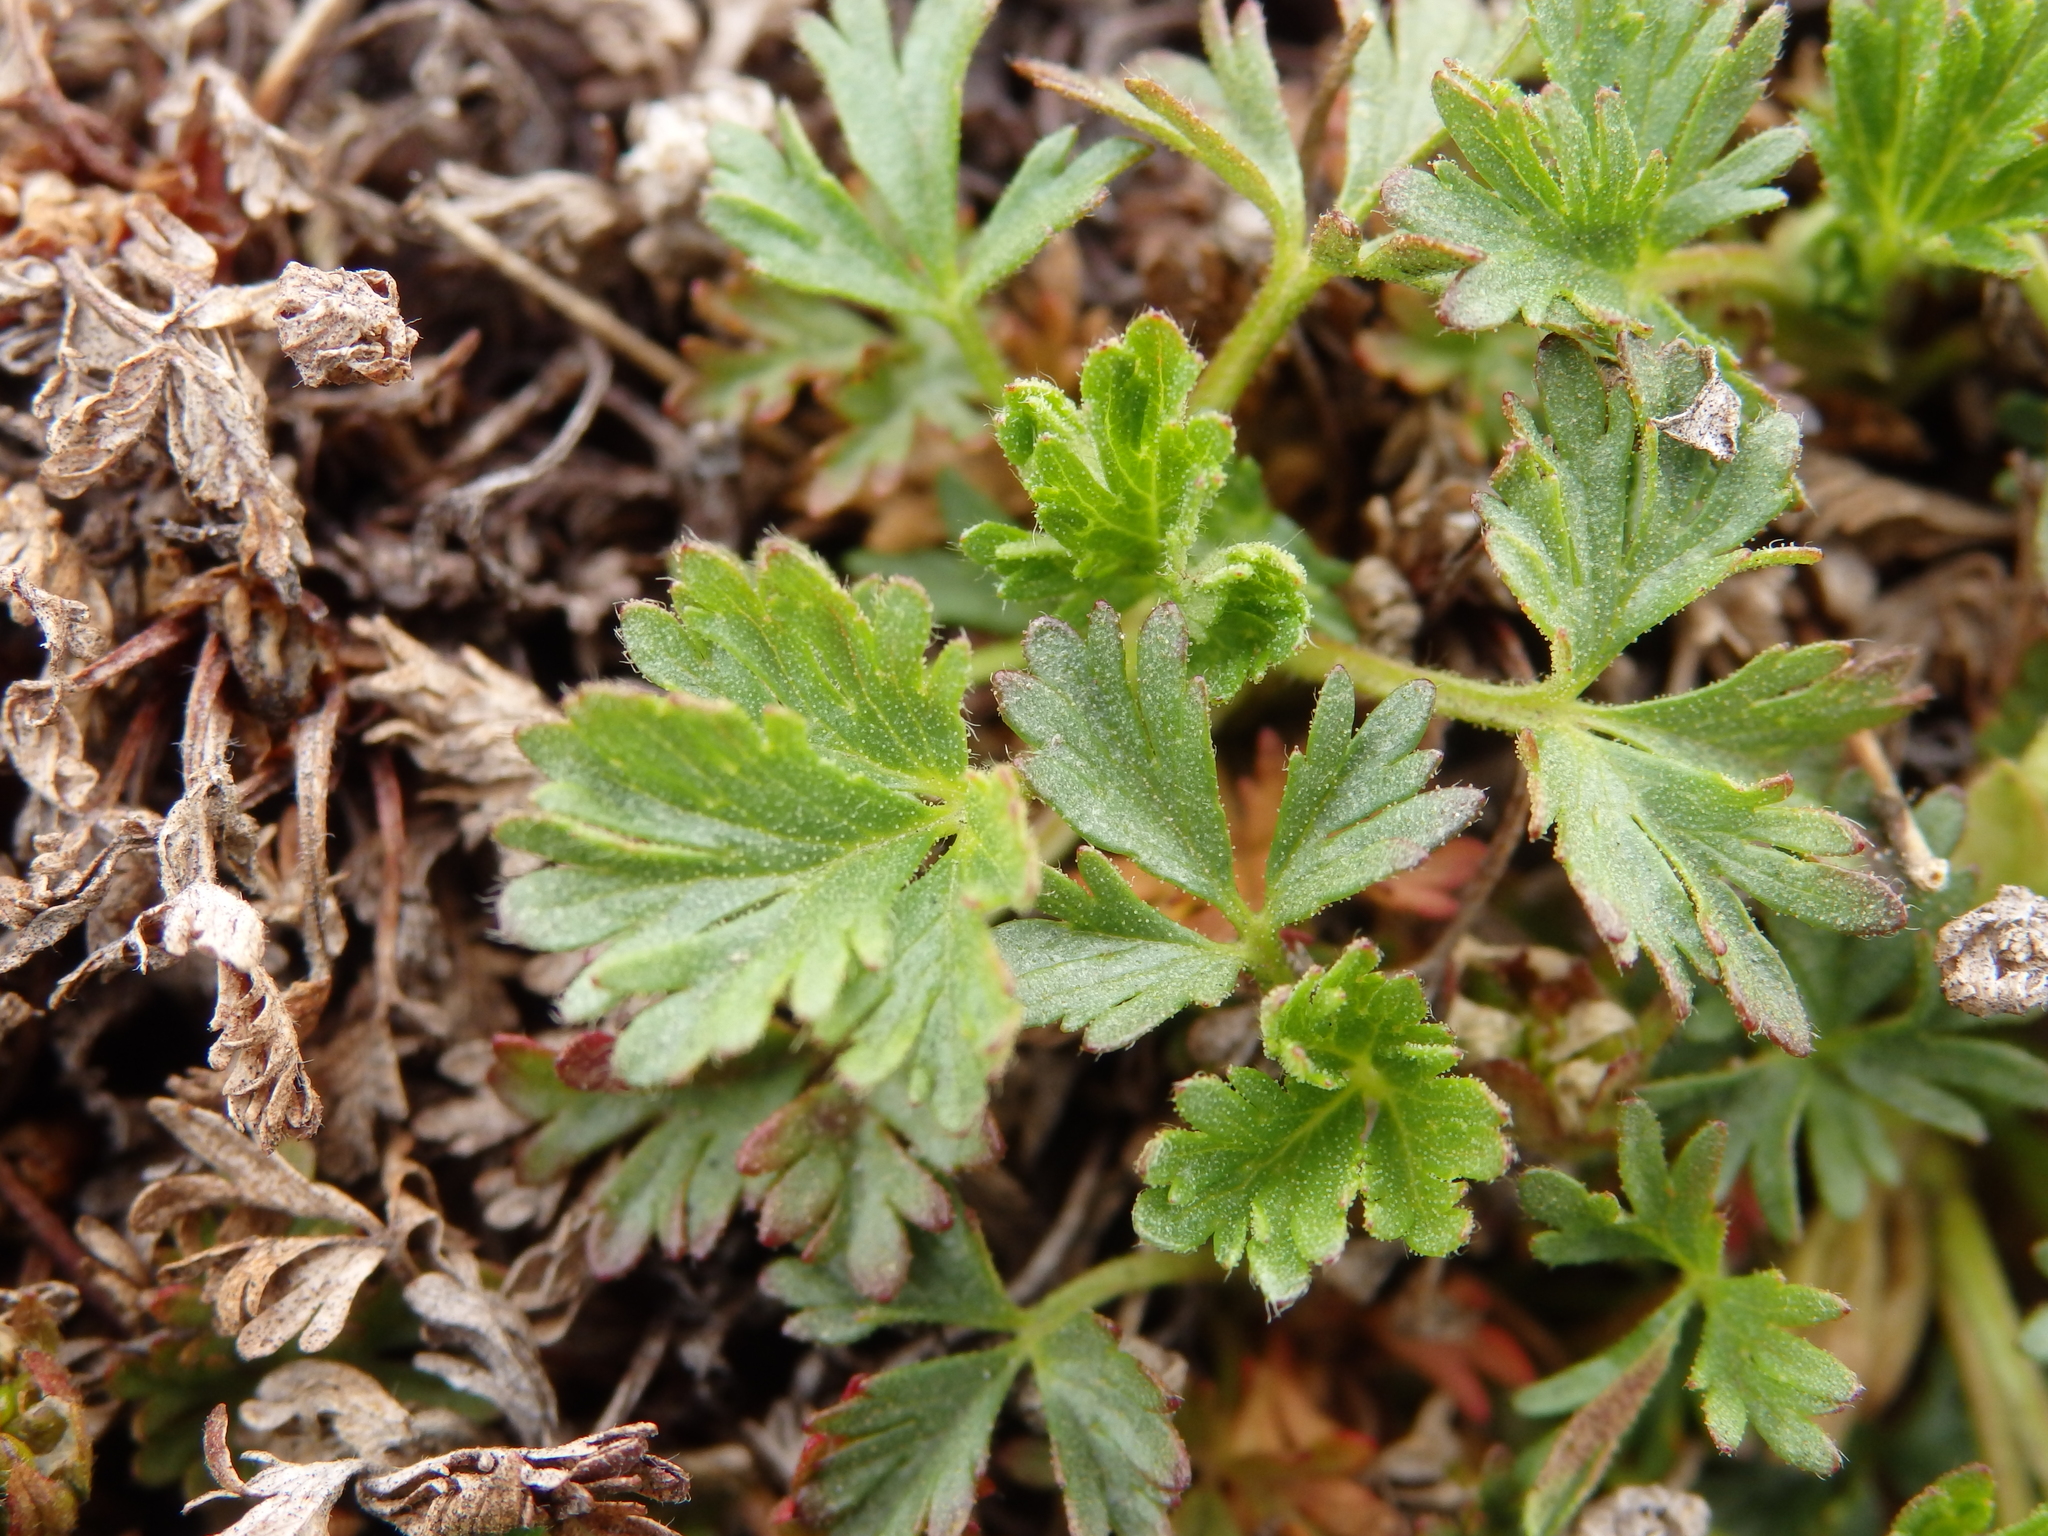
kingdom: Plantae
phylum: Tracheophyta
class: Magnoliopsida
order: Rosales
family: Rosaceae
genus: Potentilla
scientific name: Potentilla elegans
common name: Elegant cinquefoil
